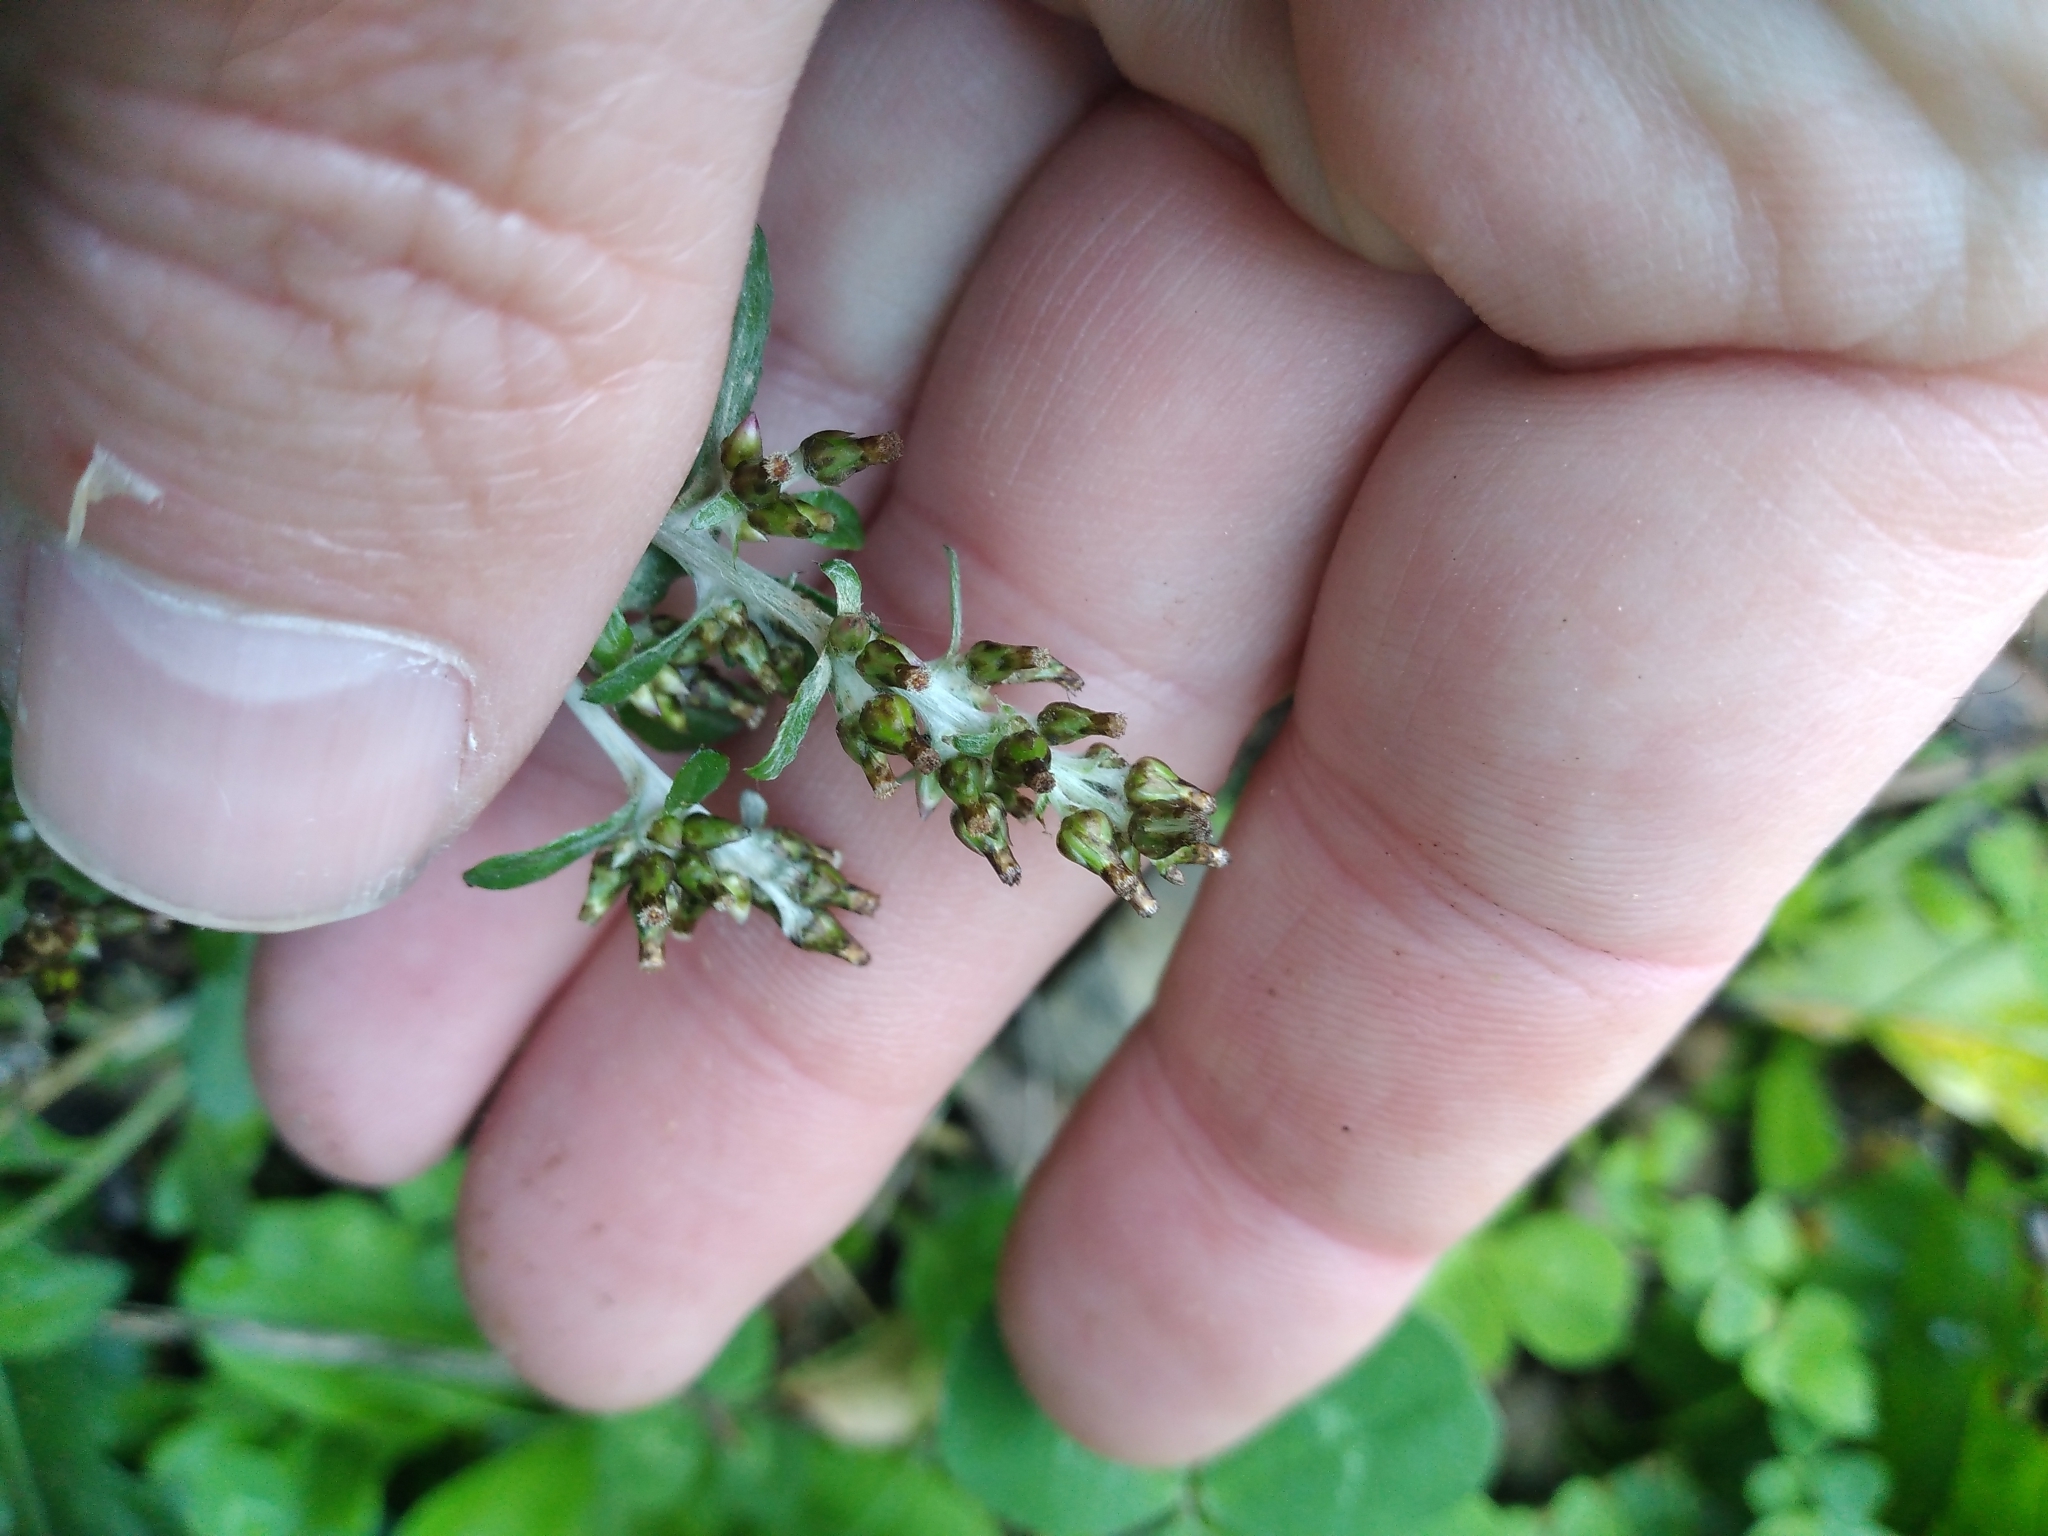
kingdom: Plantae
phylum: Tracheophyta
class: Magnoliopsida
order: Asterales
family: Asteraceae
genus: Gamochaeta
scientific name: Gamochaeta americana
